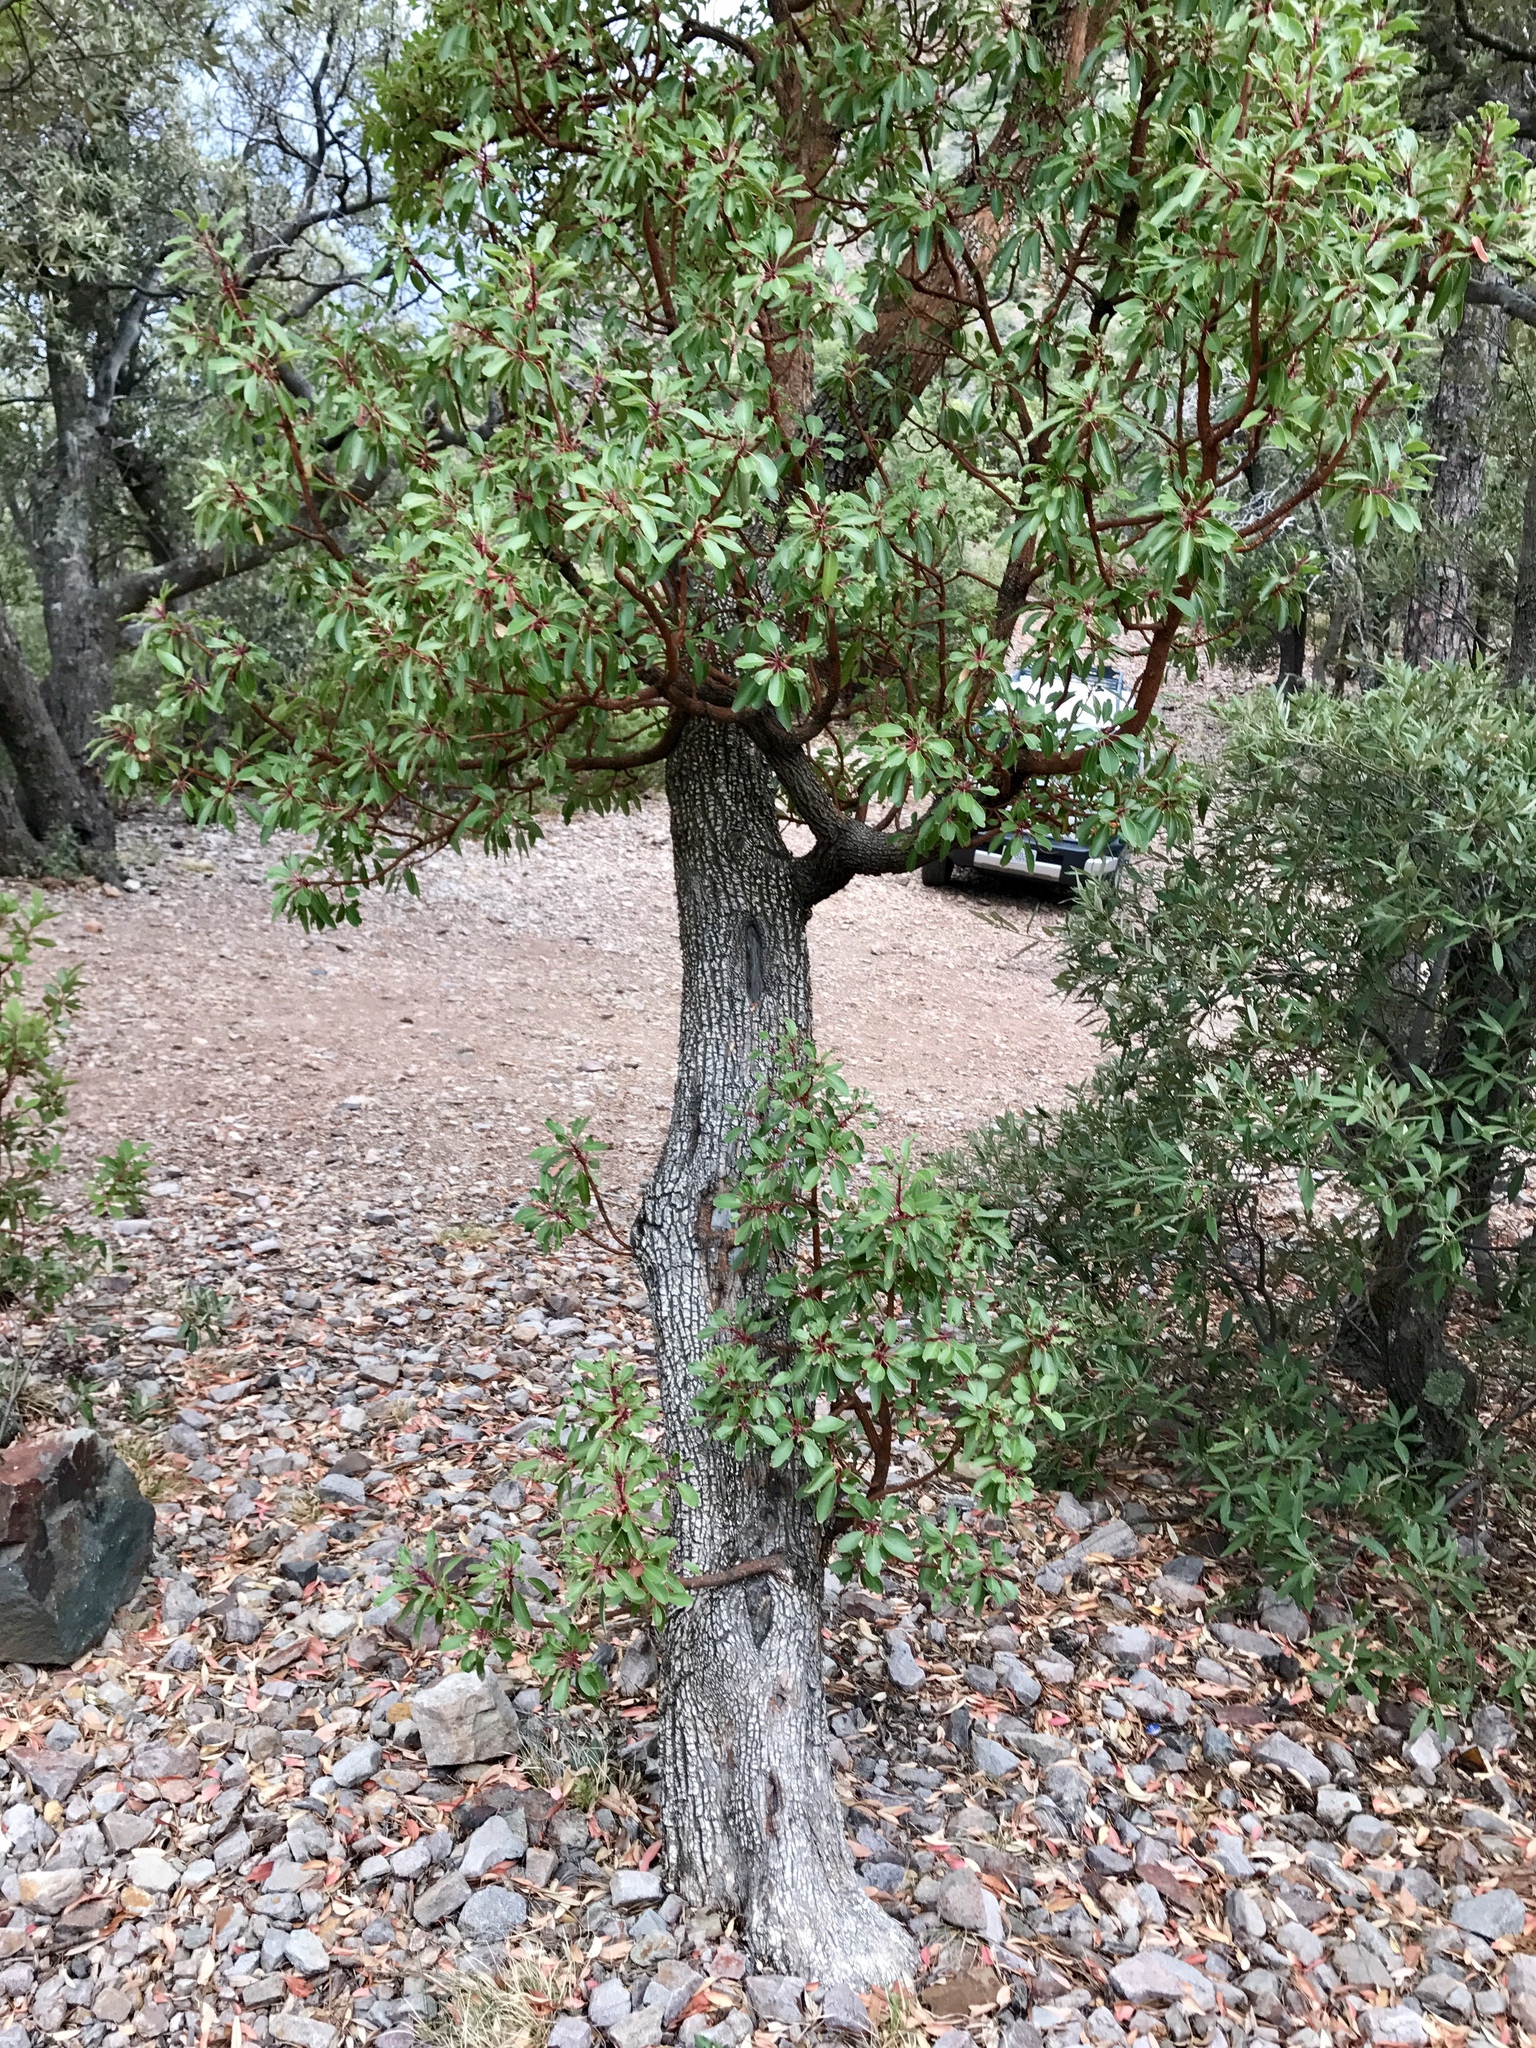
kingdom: Plantae
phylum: Tracheophyta
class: Magnoliopsida
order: Ericales
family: Ericaceae
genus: Arbutus
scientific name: Arbutus arizonica
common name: Arizona madrone
